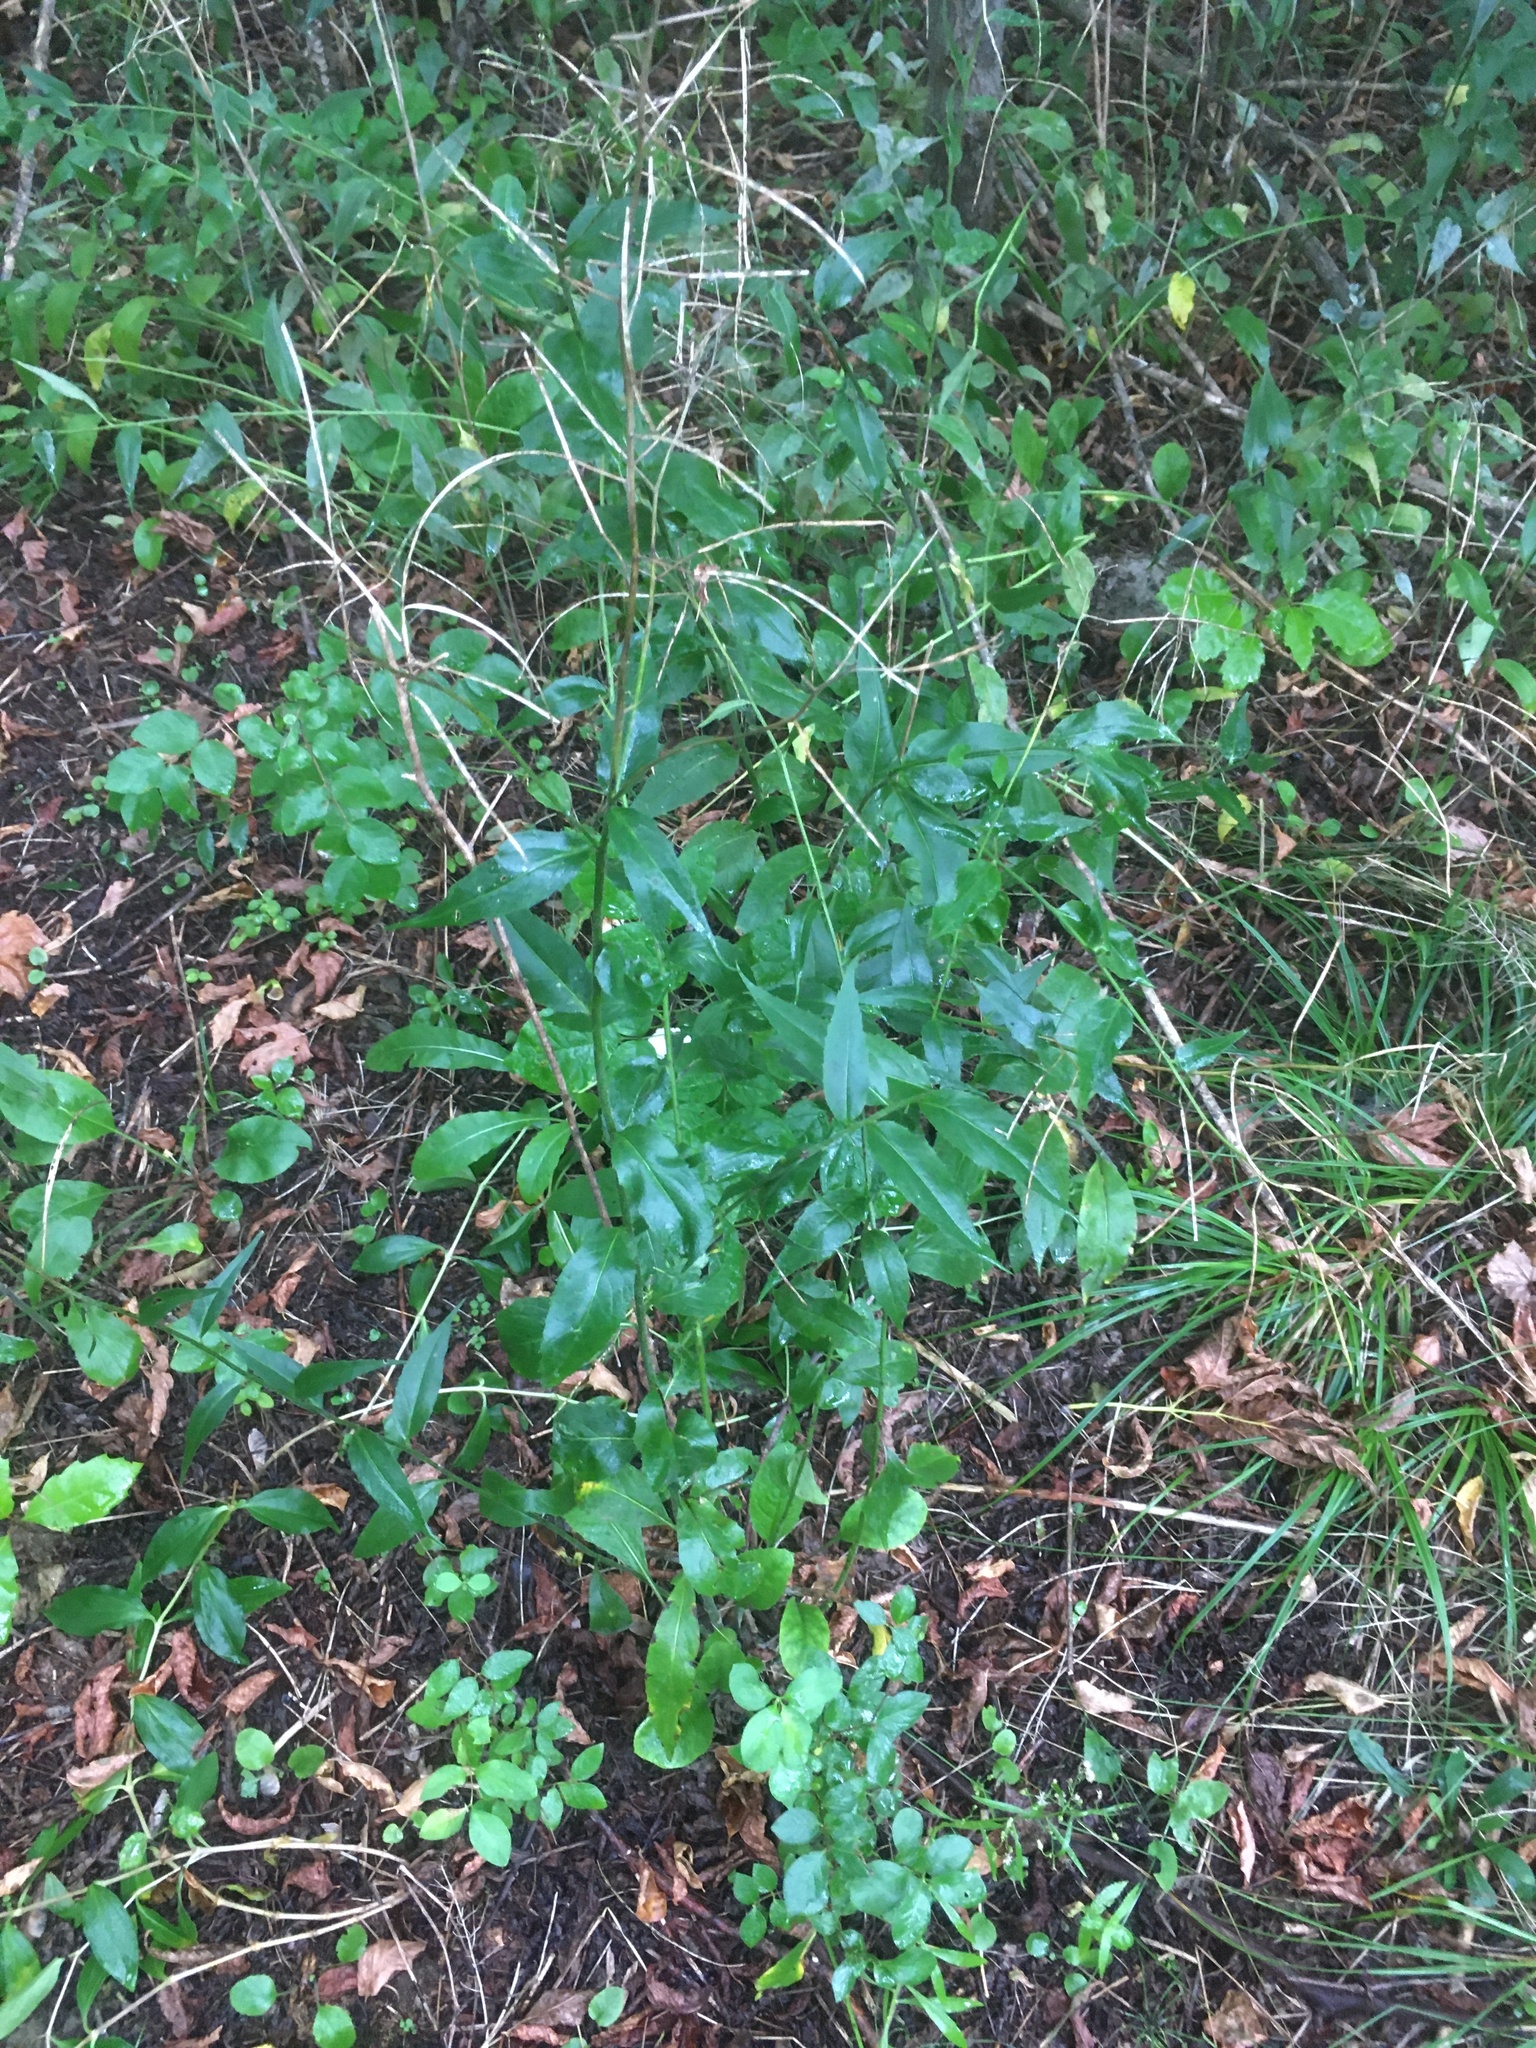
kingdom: Plantae
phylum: Tracheophyta
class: Magnoliopsida
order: Brassicales
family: Brassicaceae
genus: Hesperis
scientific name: Hesperis matronalis
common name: Dame's-violet
